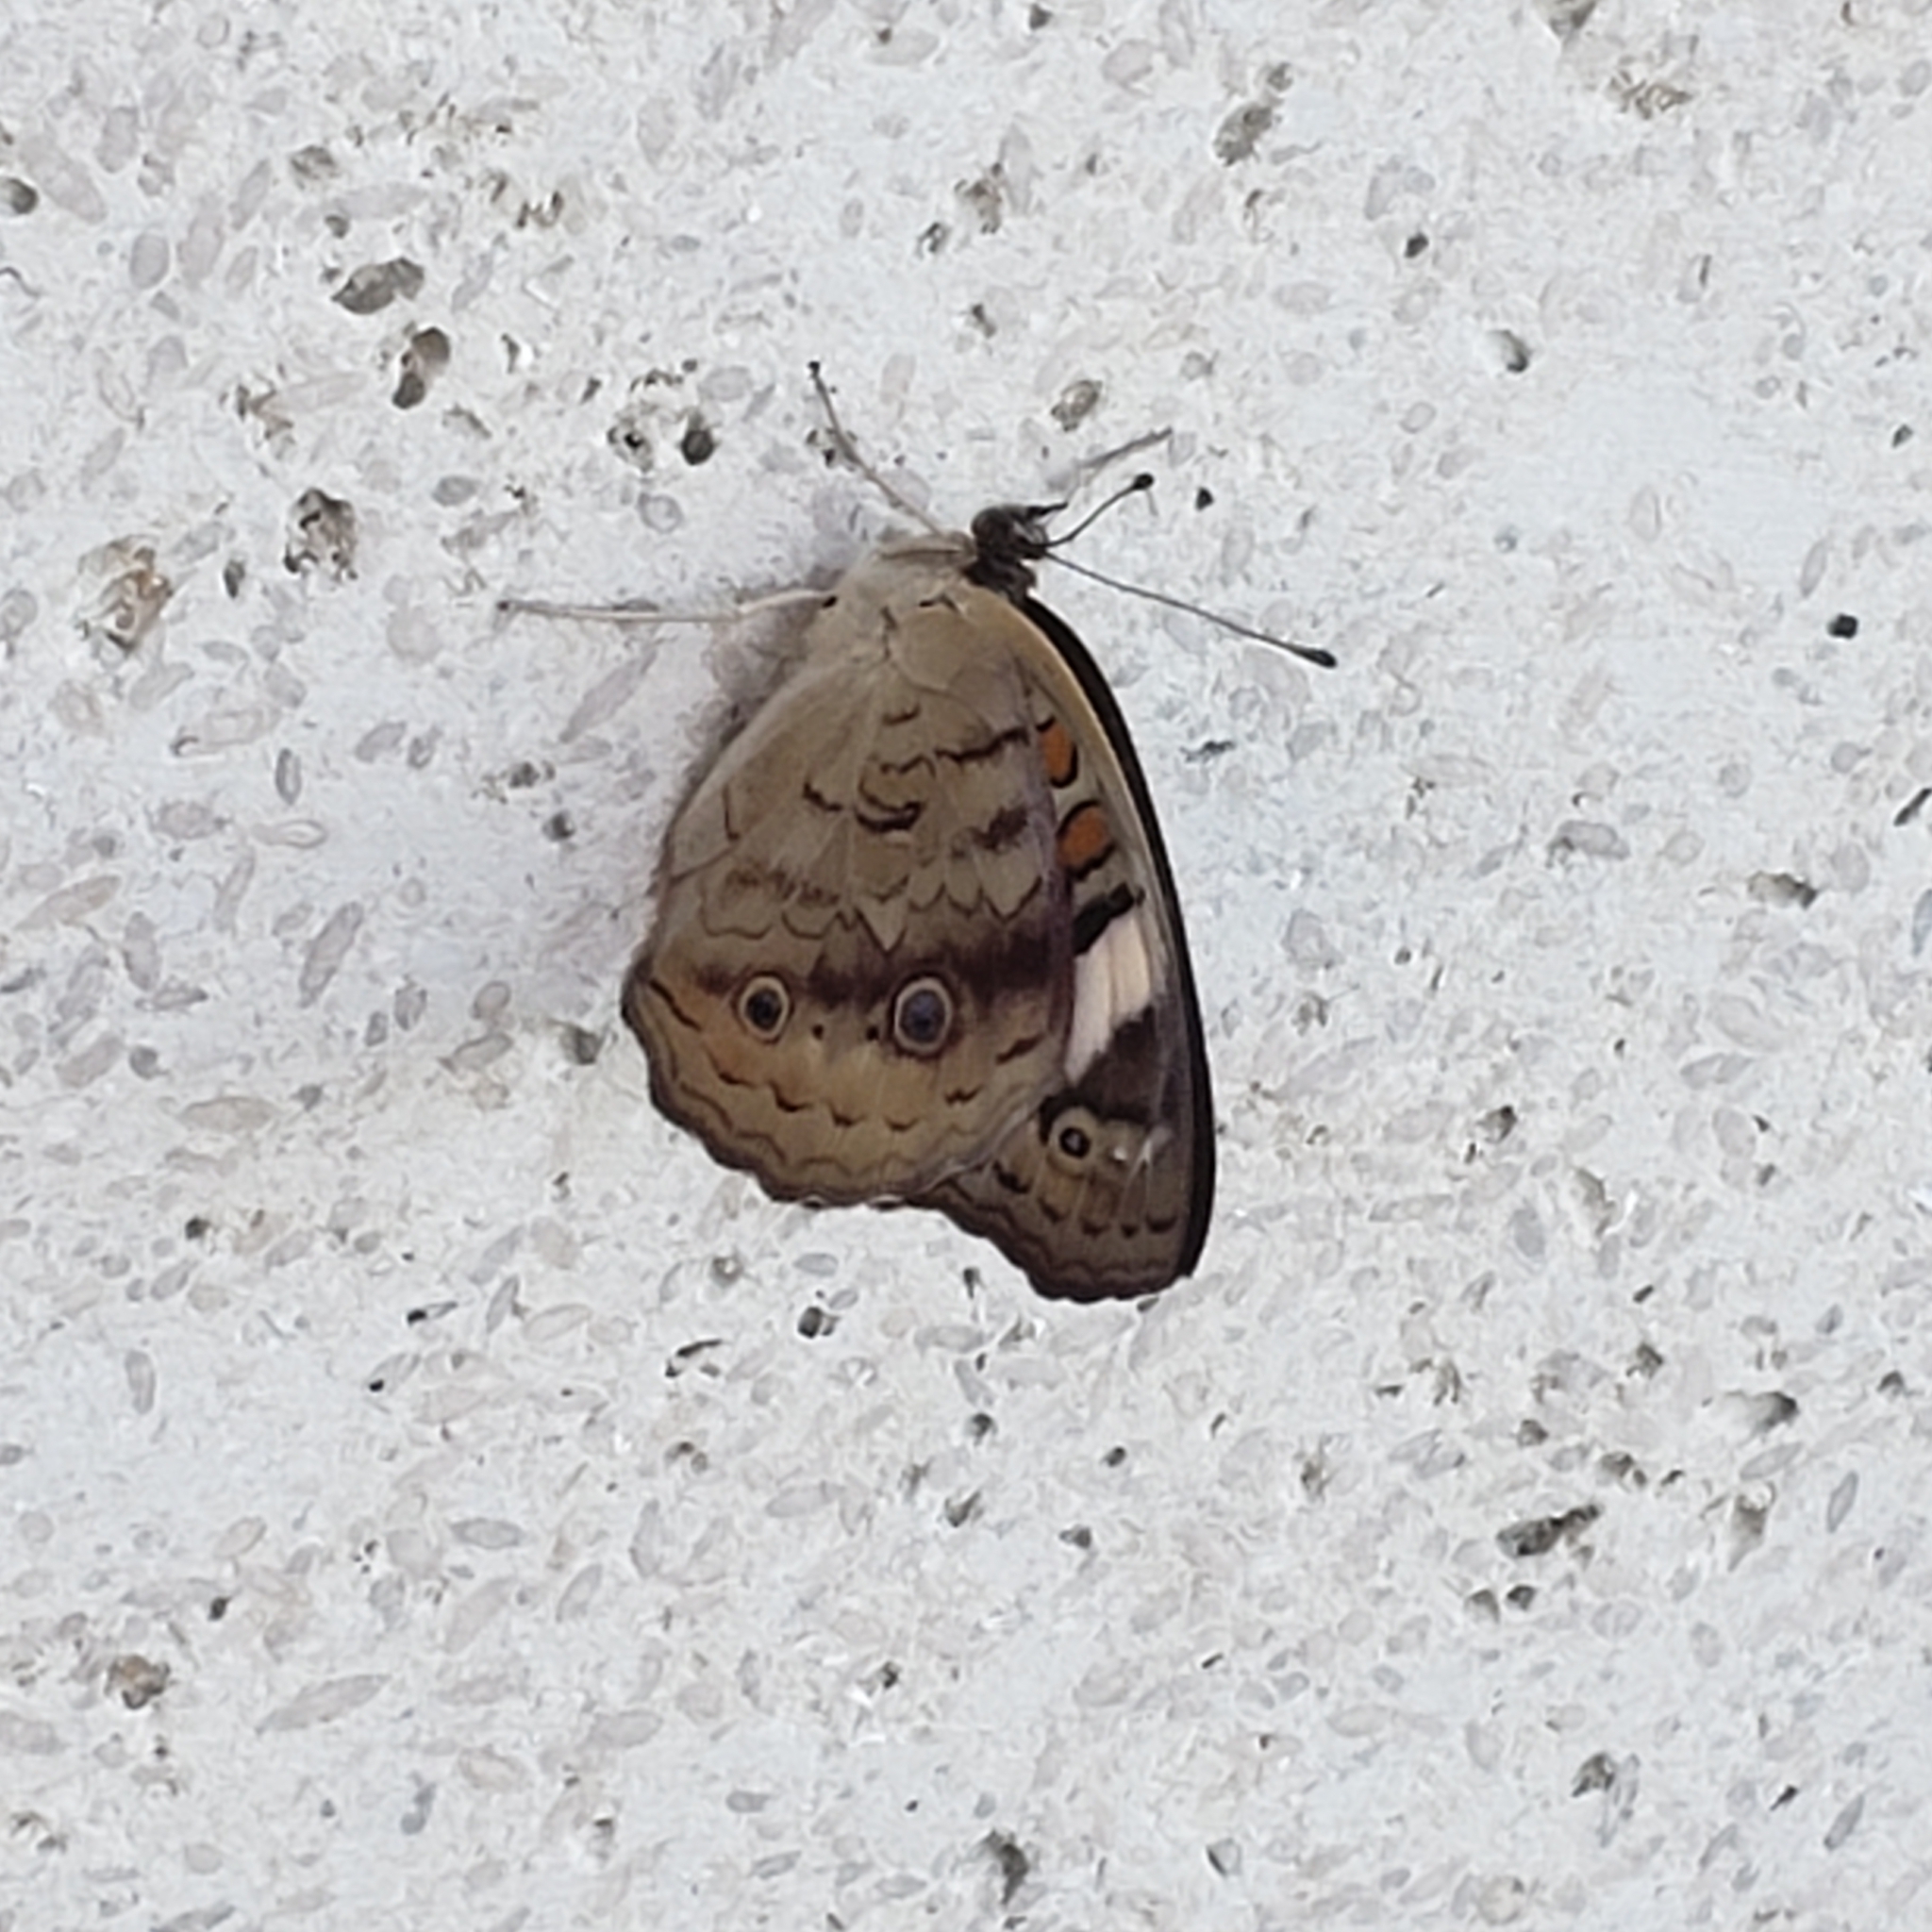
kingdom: Animalia
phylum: Arthropoda
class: Insecta
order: Lepidoptera
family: Nymphalidae
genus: Junonia
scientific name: Junonia coenia
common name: Common buckeye
